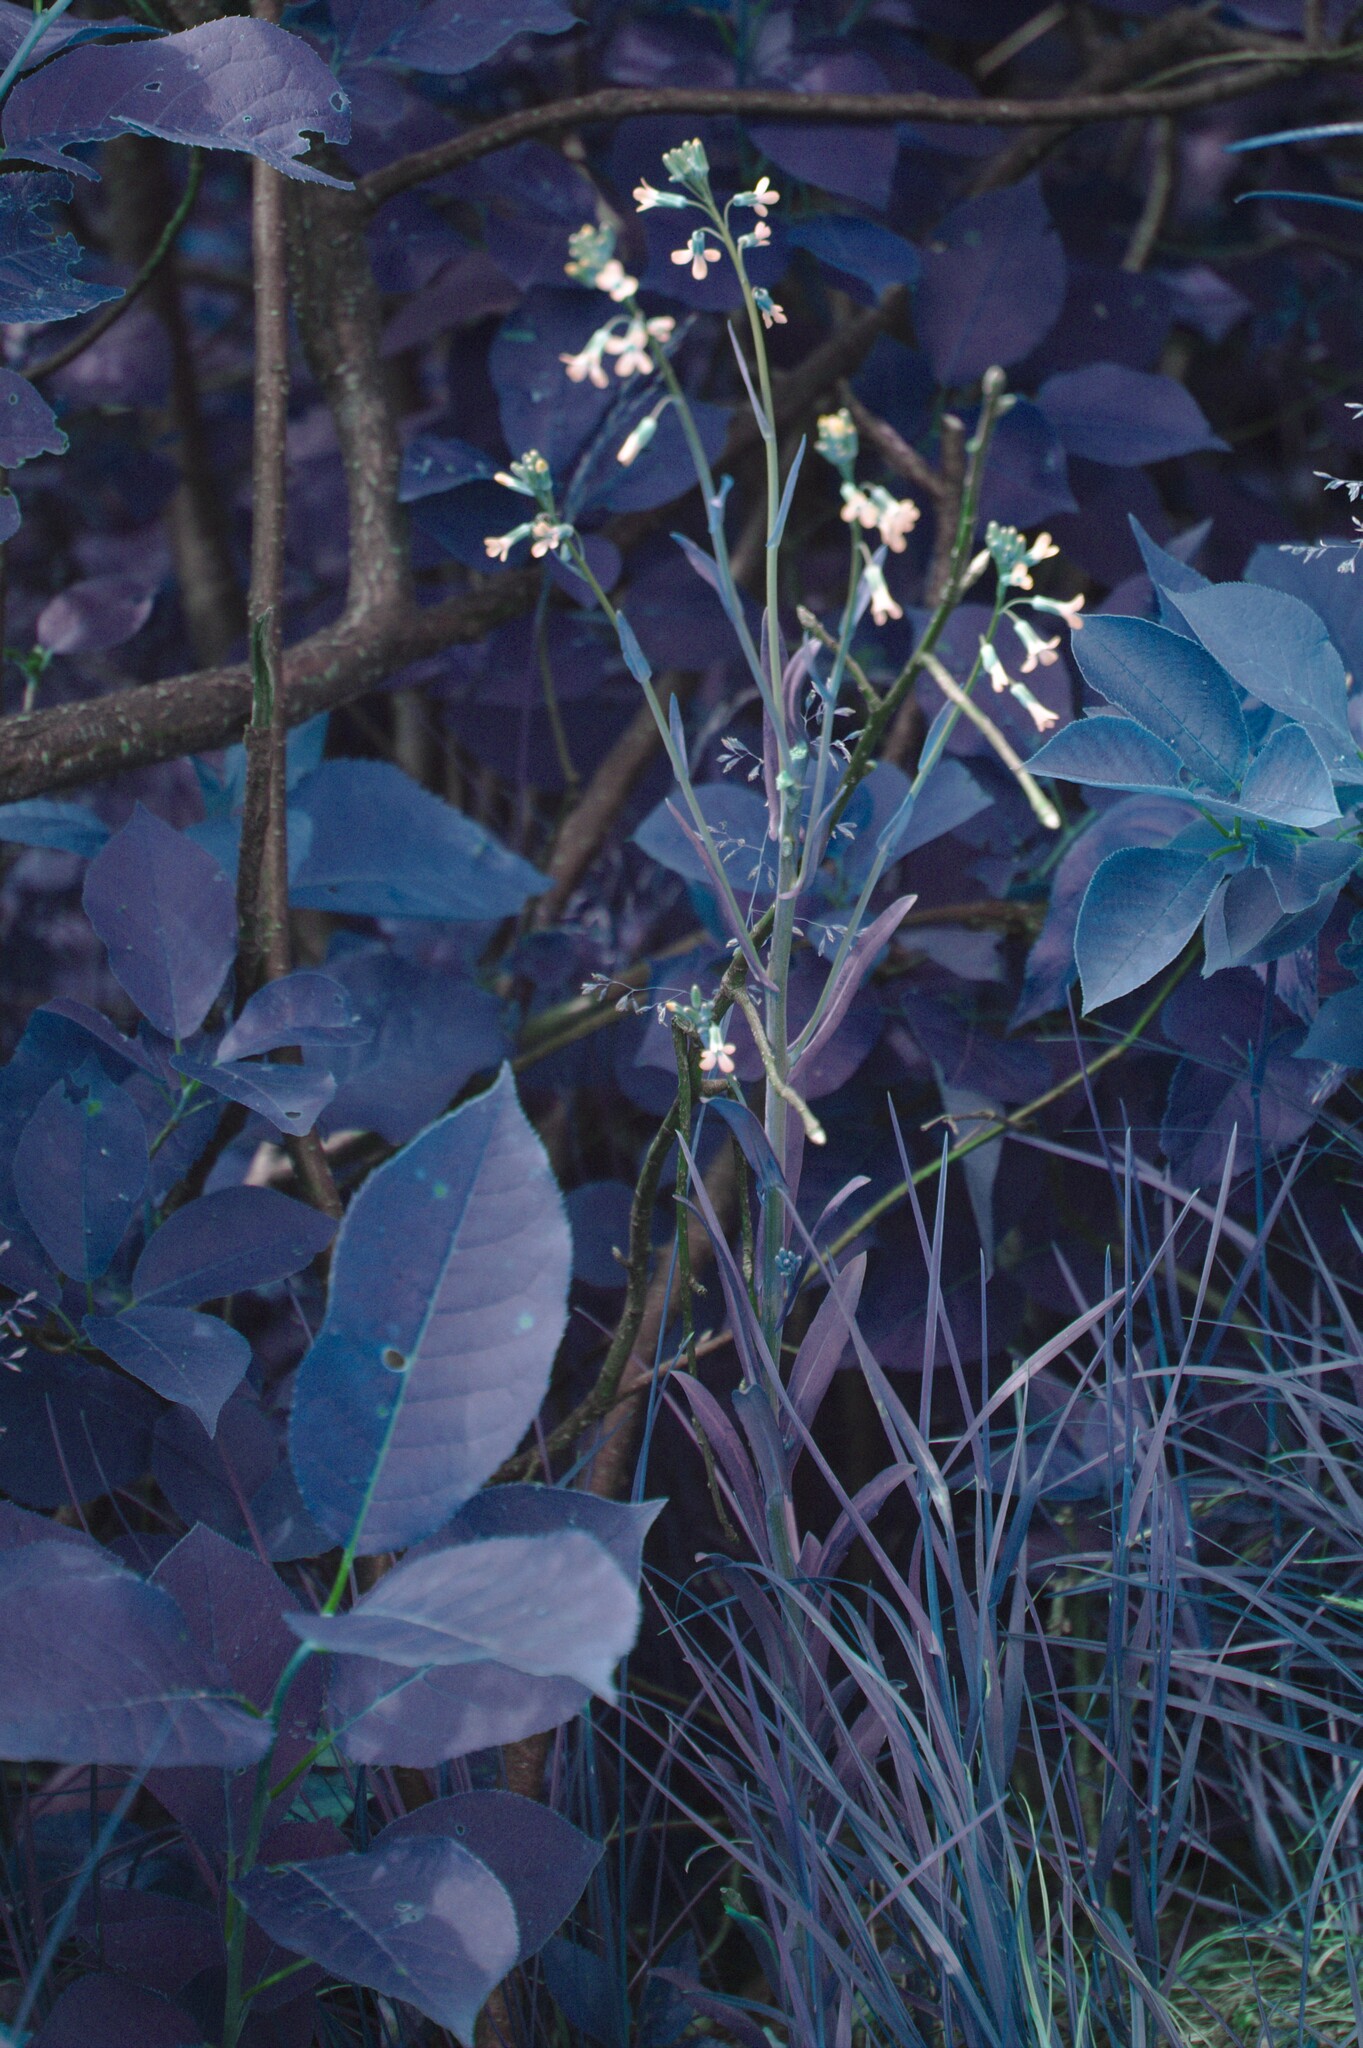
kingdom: Plantae
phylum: Tracheophyta
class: Magnoliopsida
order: Brassicales
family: Brassicaceae
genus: Boechera
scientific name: Boechera grahamii
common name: Graham's rockcress
